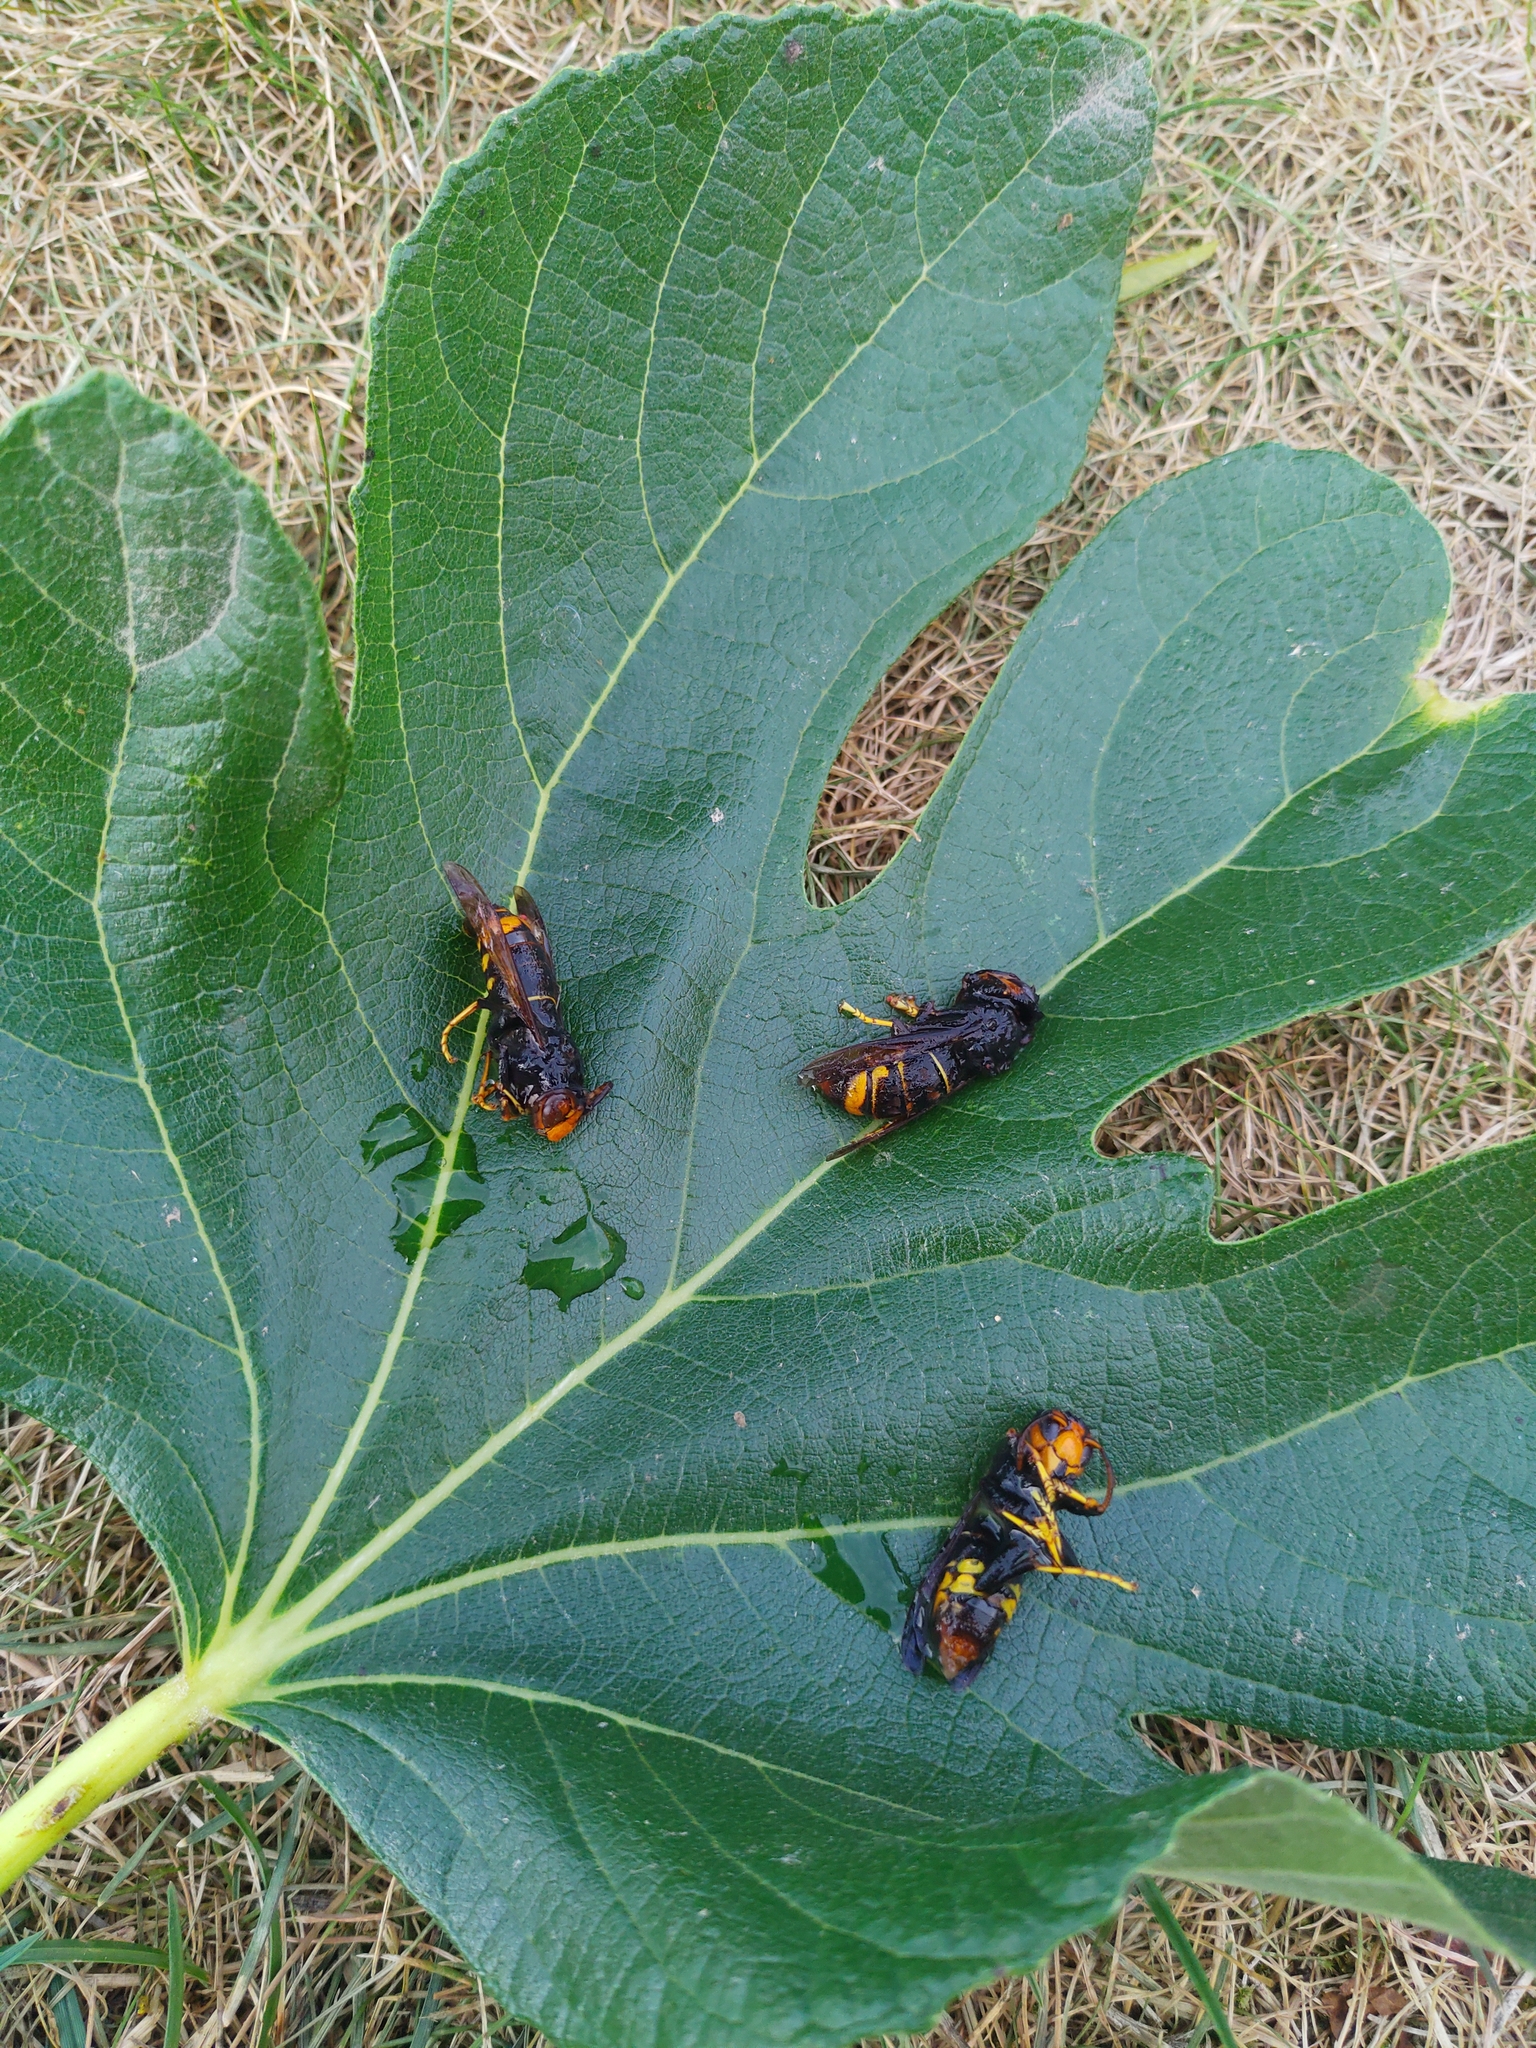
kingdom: Animalia
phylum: Arthropoda
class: Insecta
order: Hymenoptera
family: Vespidae
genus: Vespa
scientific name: Vespa velutina
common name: Asian hornet
